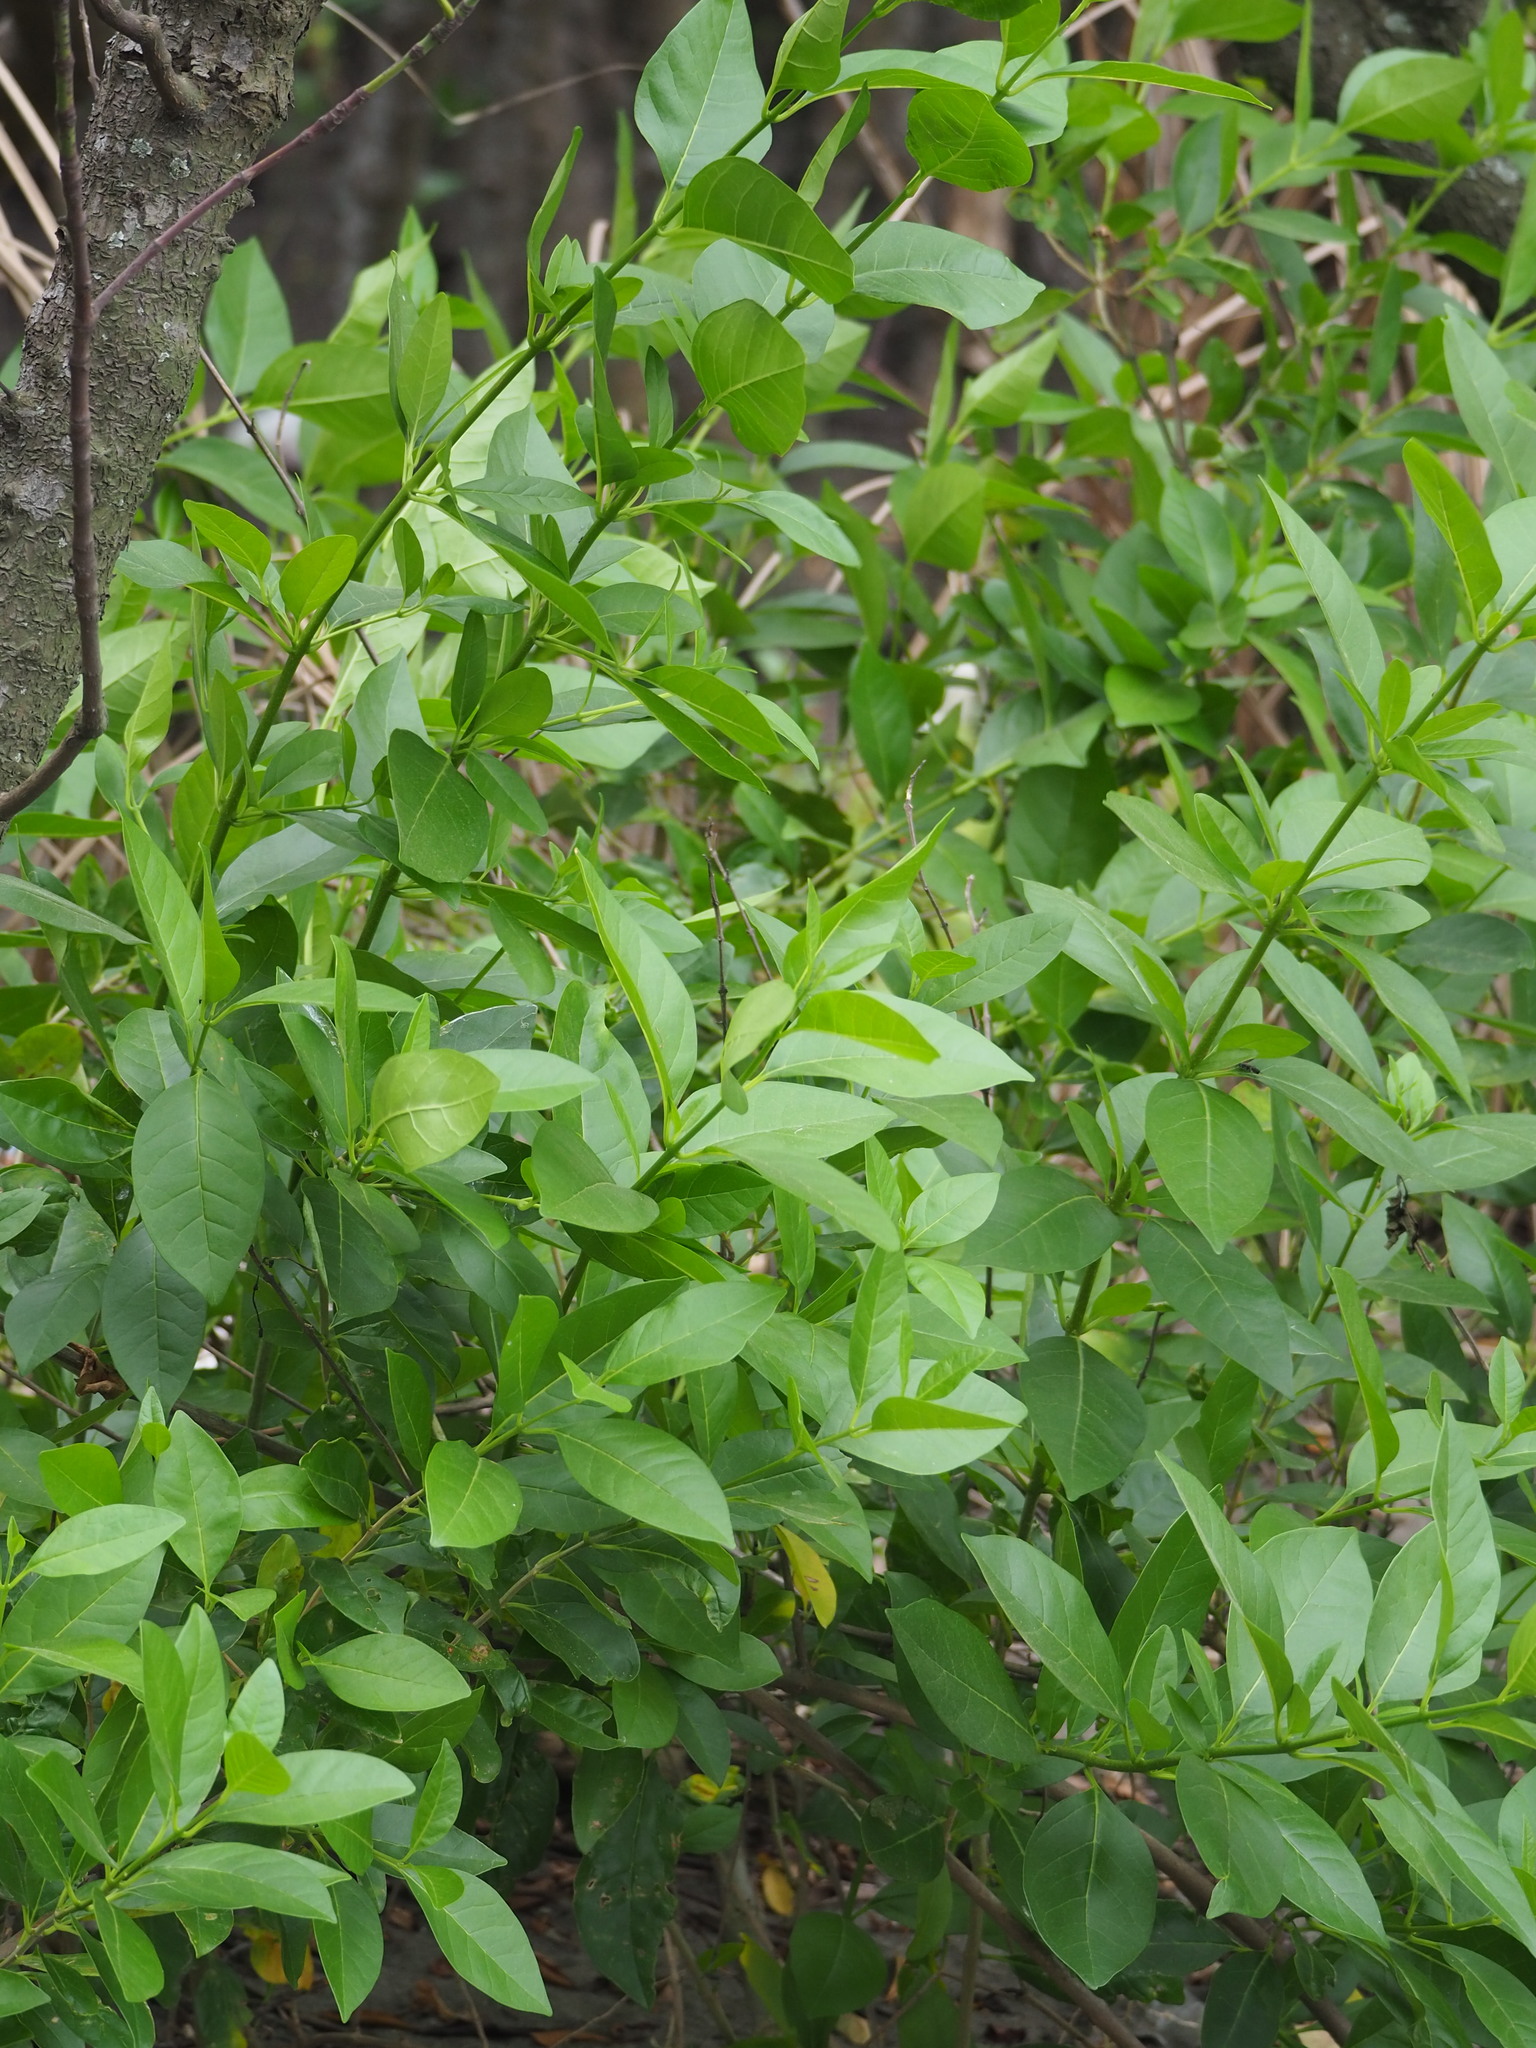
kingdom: Plantae
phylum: Tracheophyta
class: Magnoliopsida
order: Lamiales
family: Lamiaceae
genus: Volkameria
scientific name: Volkameria inermis
